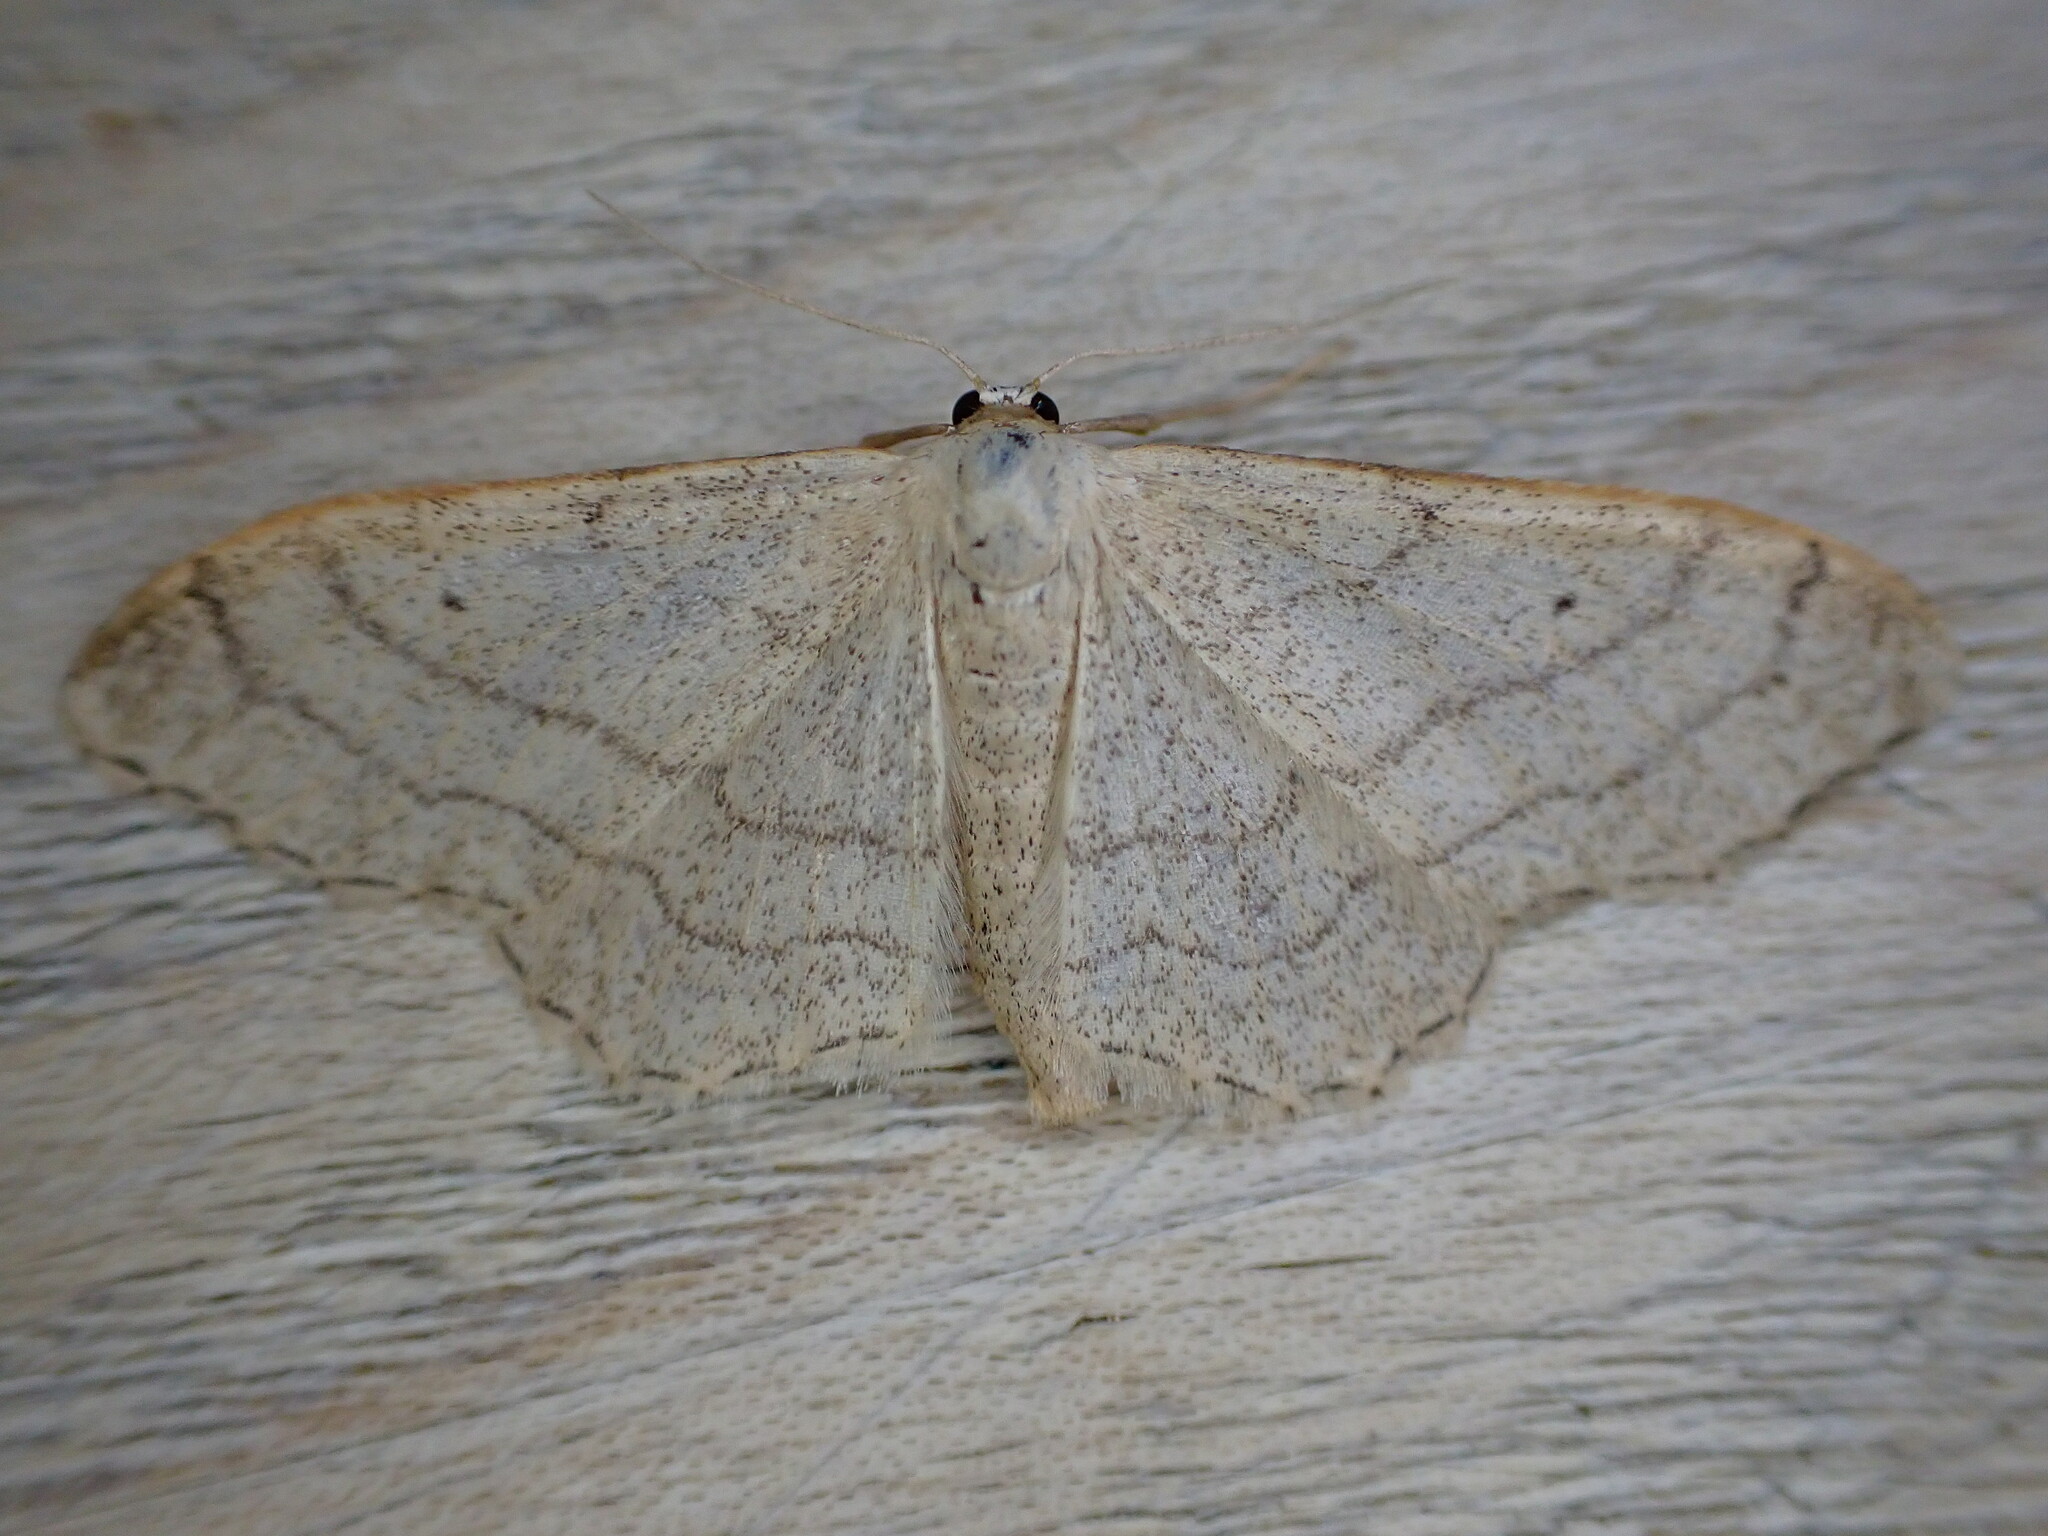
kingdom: Animalia
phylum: Arthropoda
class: Insecta
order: Lepidoptera
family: Geometridae
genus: Idaea
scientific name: Idaea aversata
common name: Riband wave
